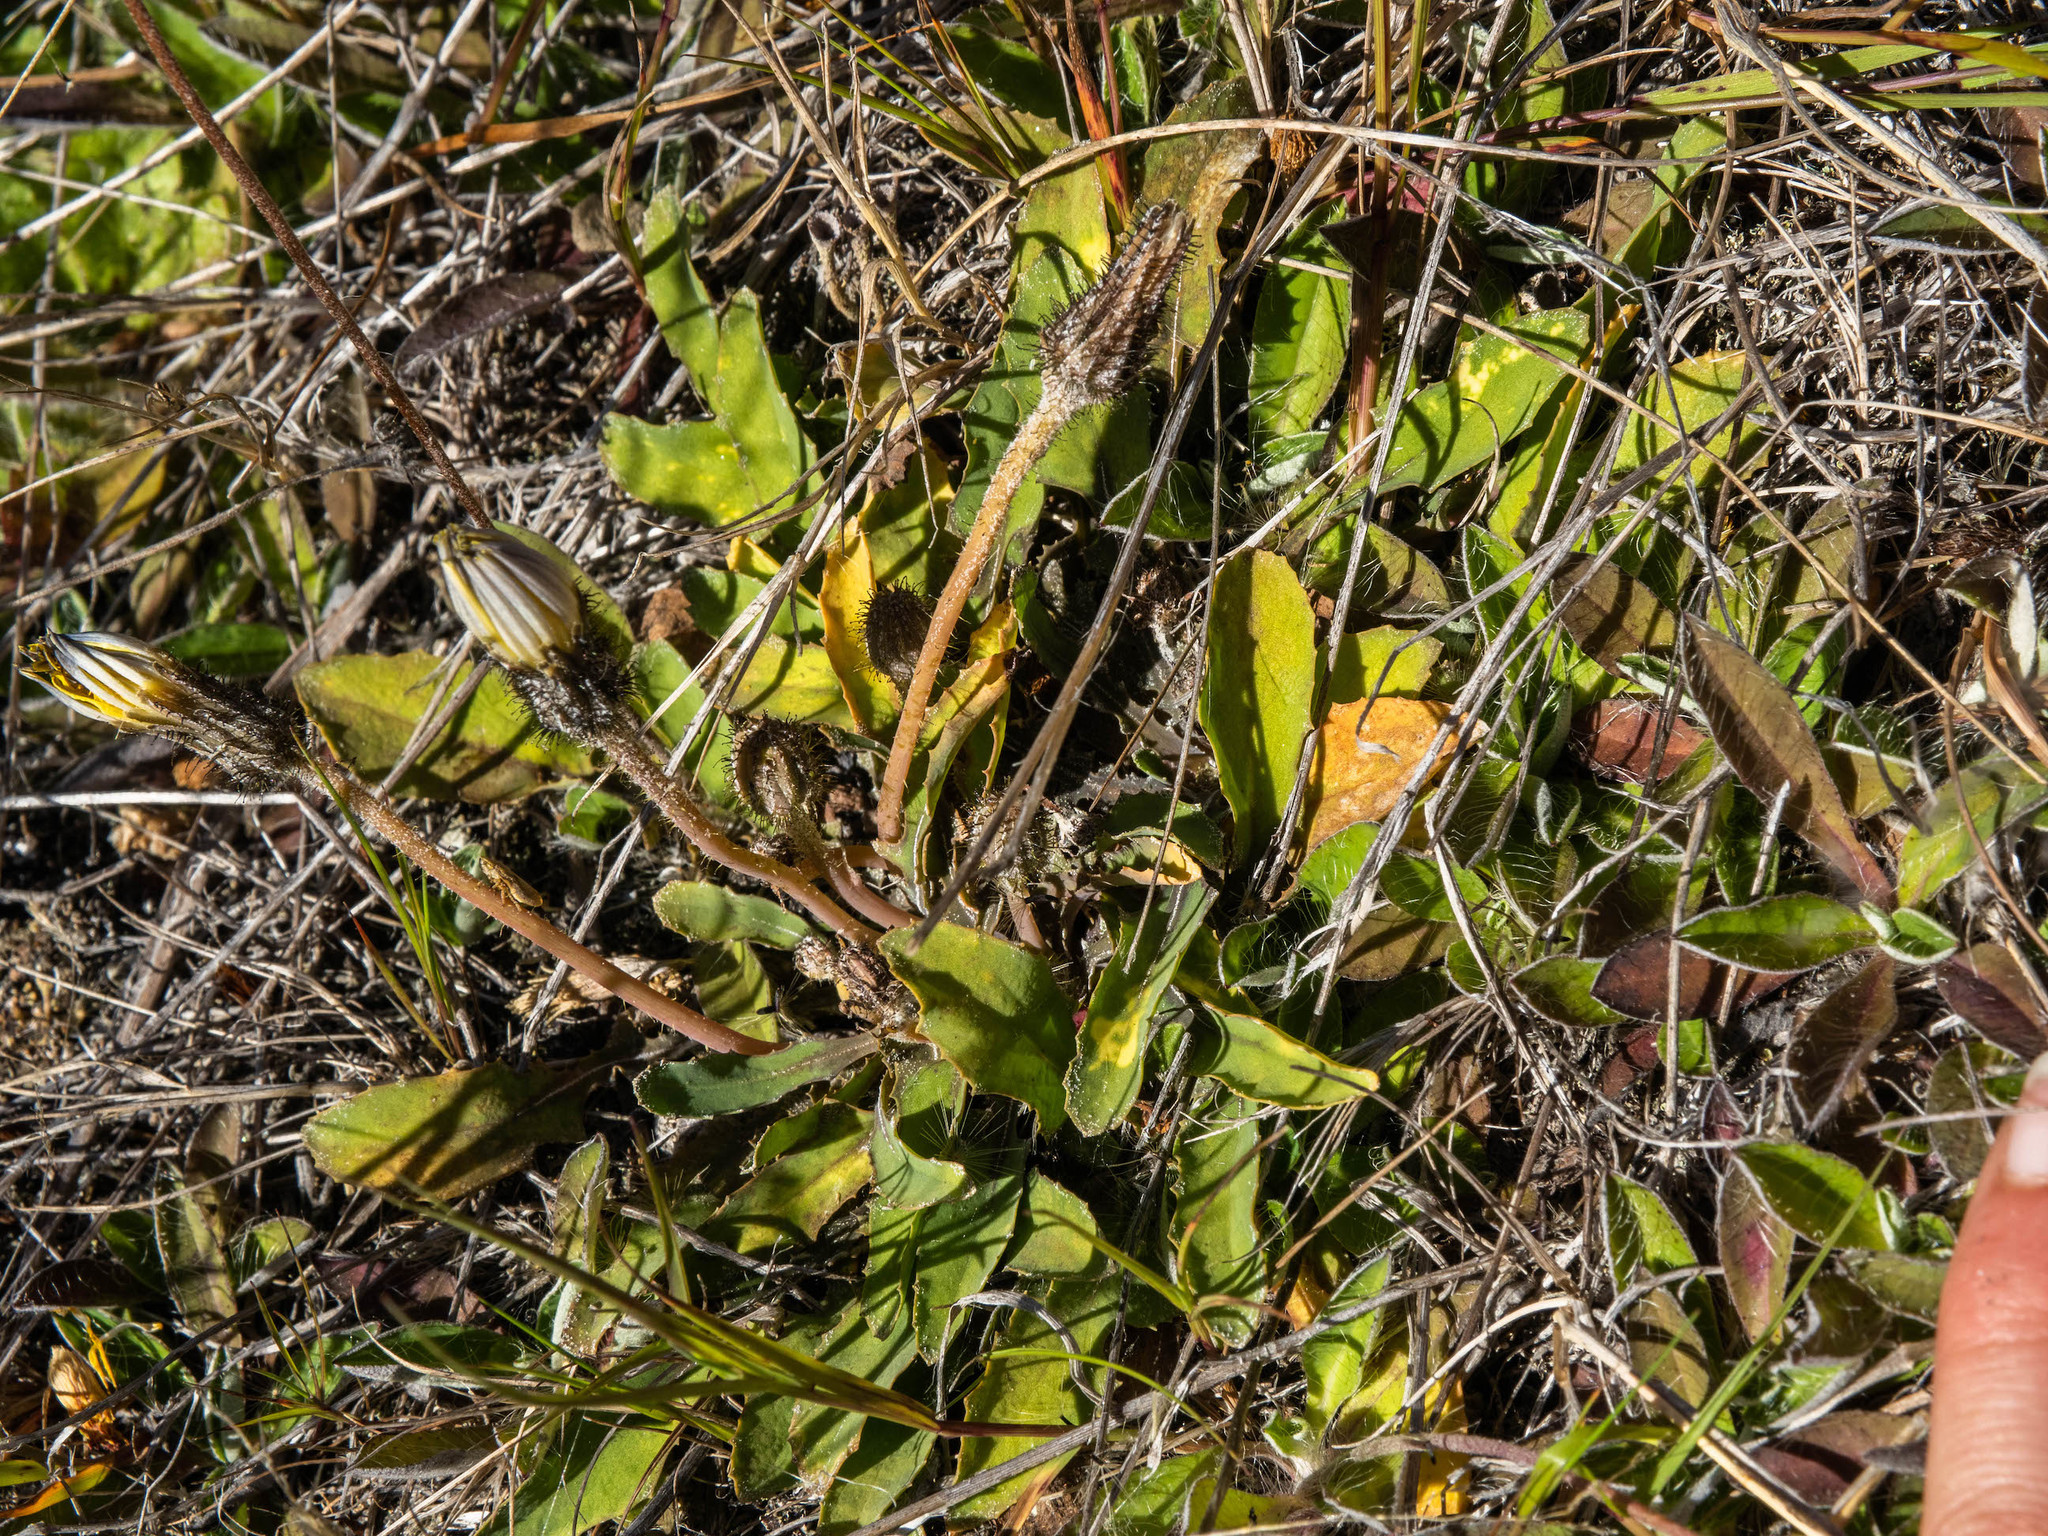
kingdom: Plantae
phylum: Tracheophyta
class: Magnoliopsida
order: Asterales
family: Asteraceae
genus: Sonchus
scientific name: Sonchus novae-zelandiae
